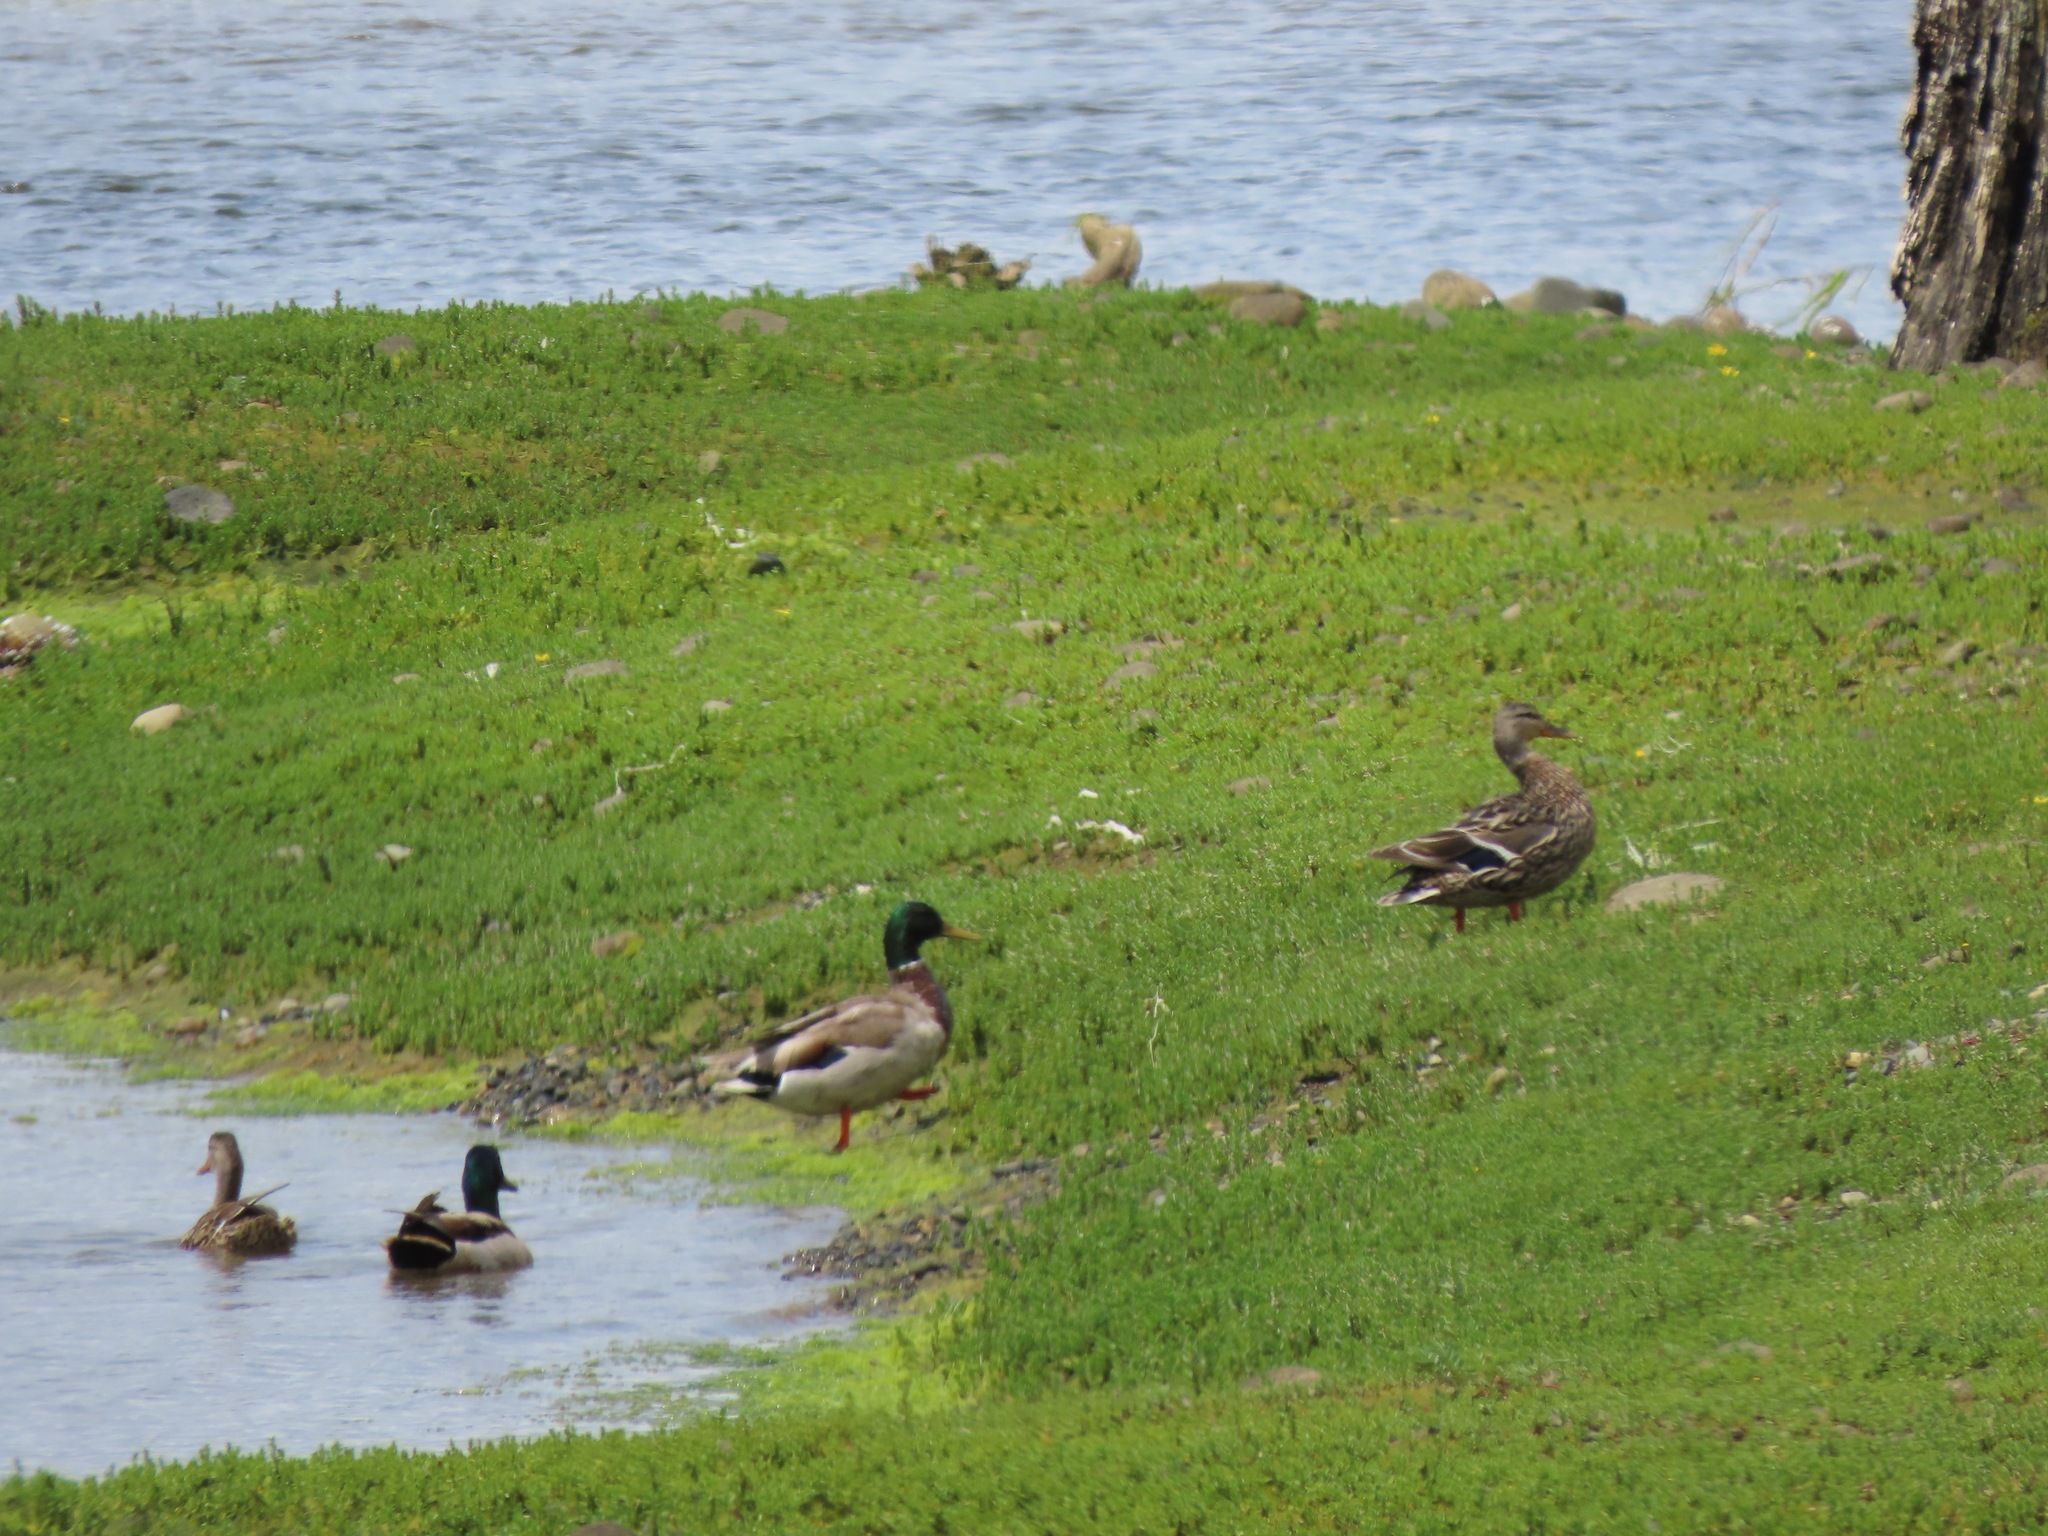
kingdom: Animalia
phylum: Chordata
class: Aves
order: Anseriformes
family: Anatidae
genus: Anas
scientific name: Anas platyrhynchos
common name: Mallard
